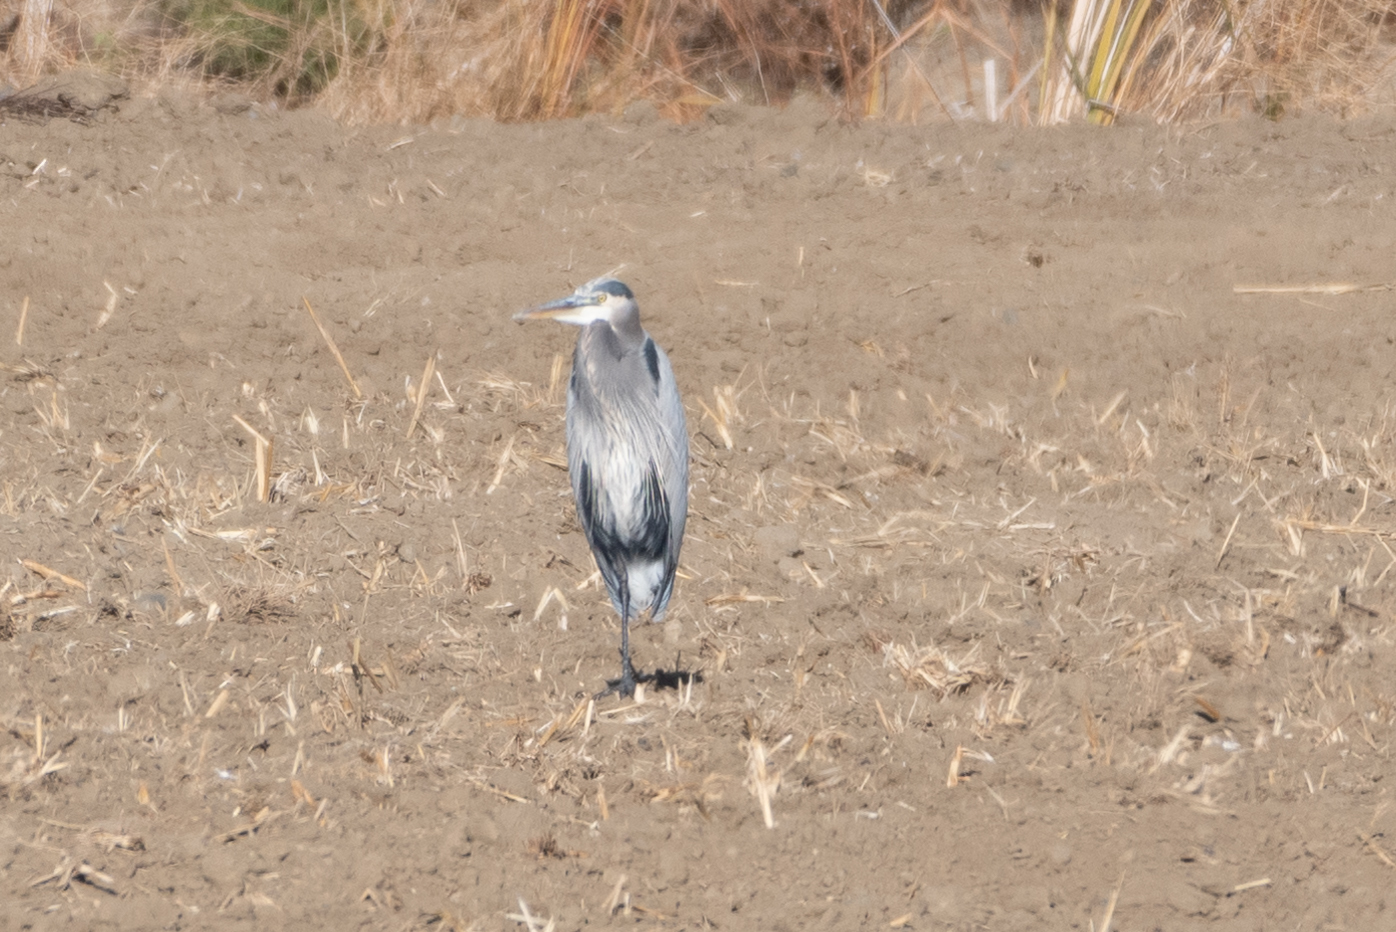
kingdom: Animalia
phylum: Chordata
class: Aves
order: Pelecaniformes
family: Ardeidae
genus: Ardea
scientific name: Ardea herodias
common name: Great blue heron
